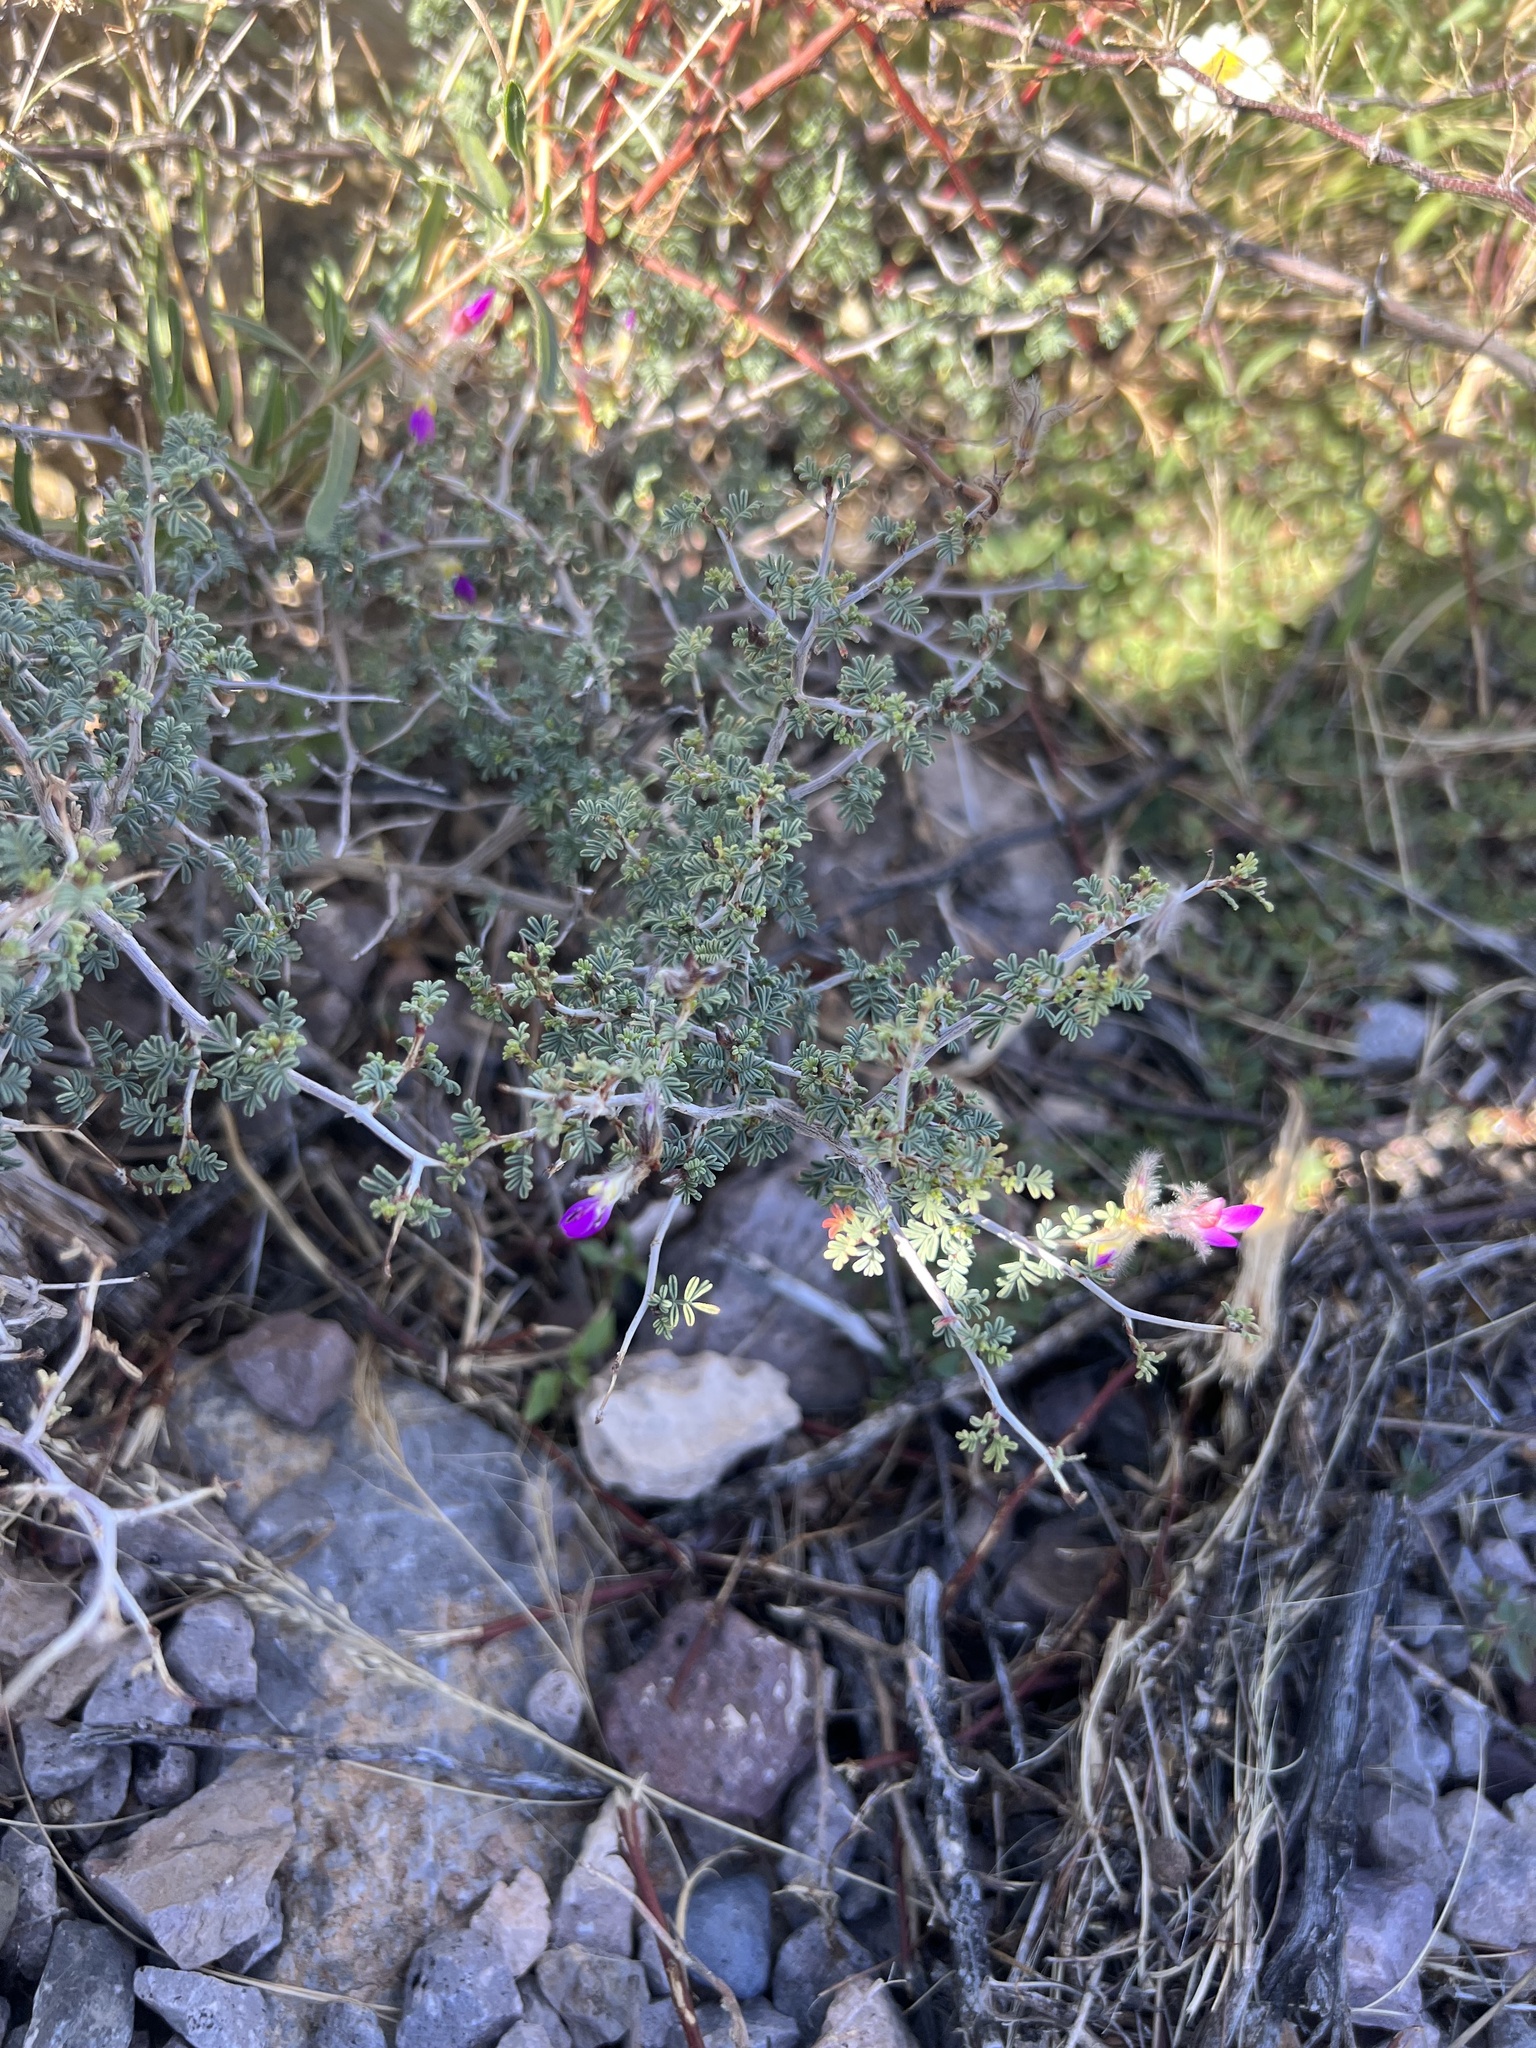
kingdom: Plantae
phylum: Tracheophyta
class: Magnoliopsida
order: Fabales
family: Fabaceae
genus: Dalea
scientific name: Dalea formosa
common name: Feather-plume dalea
